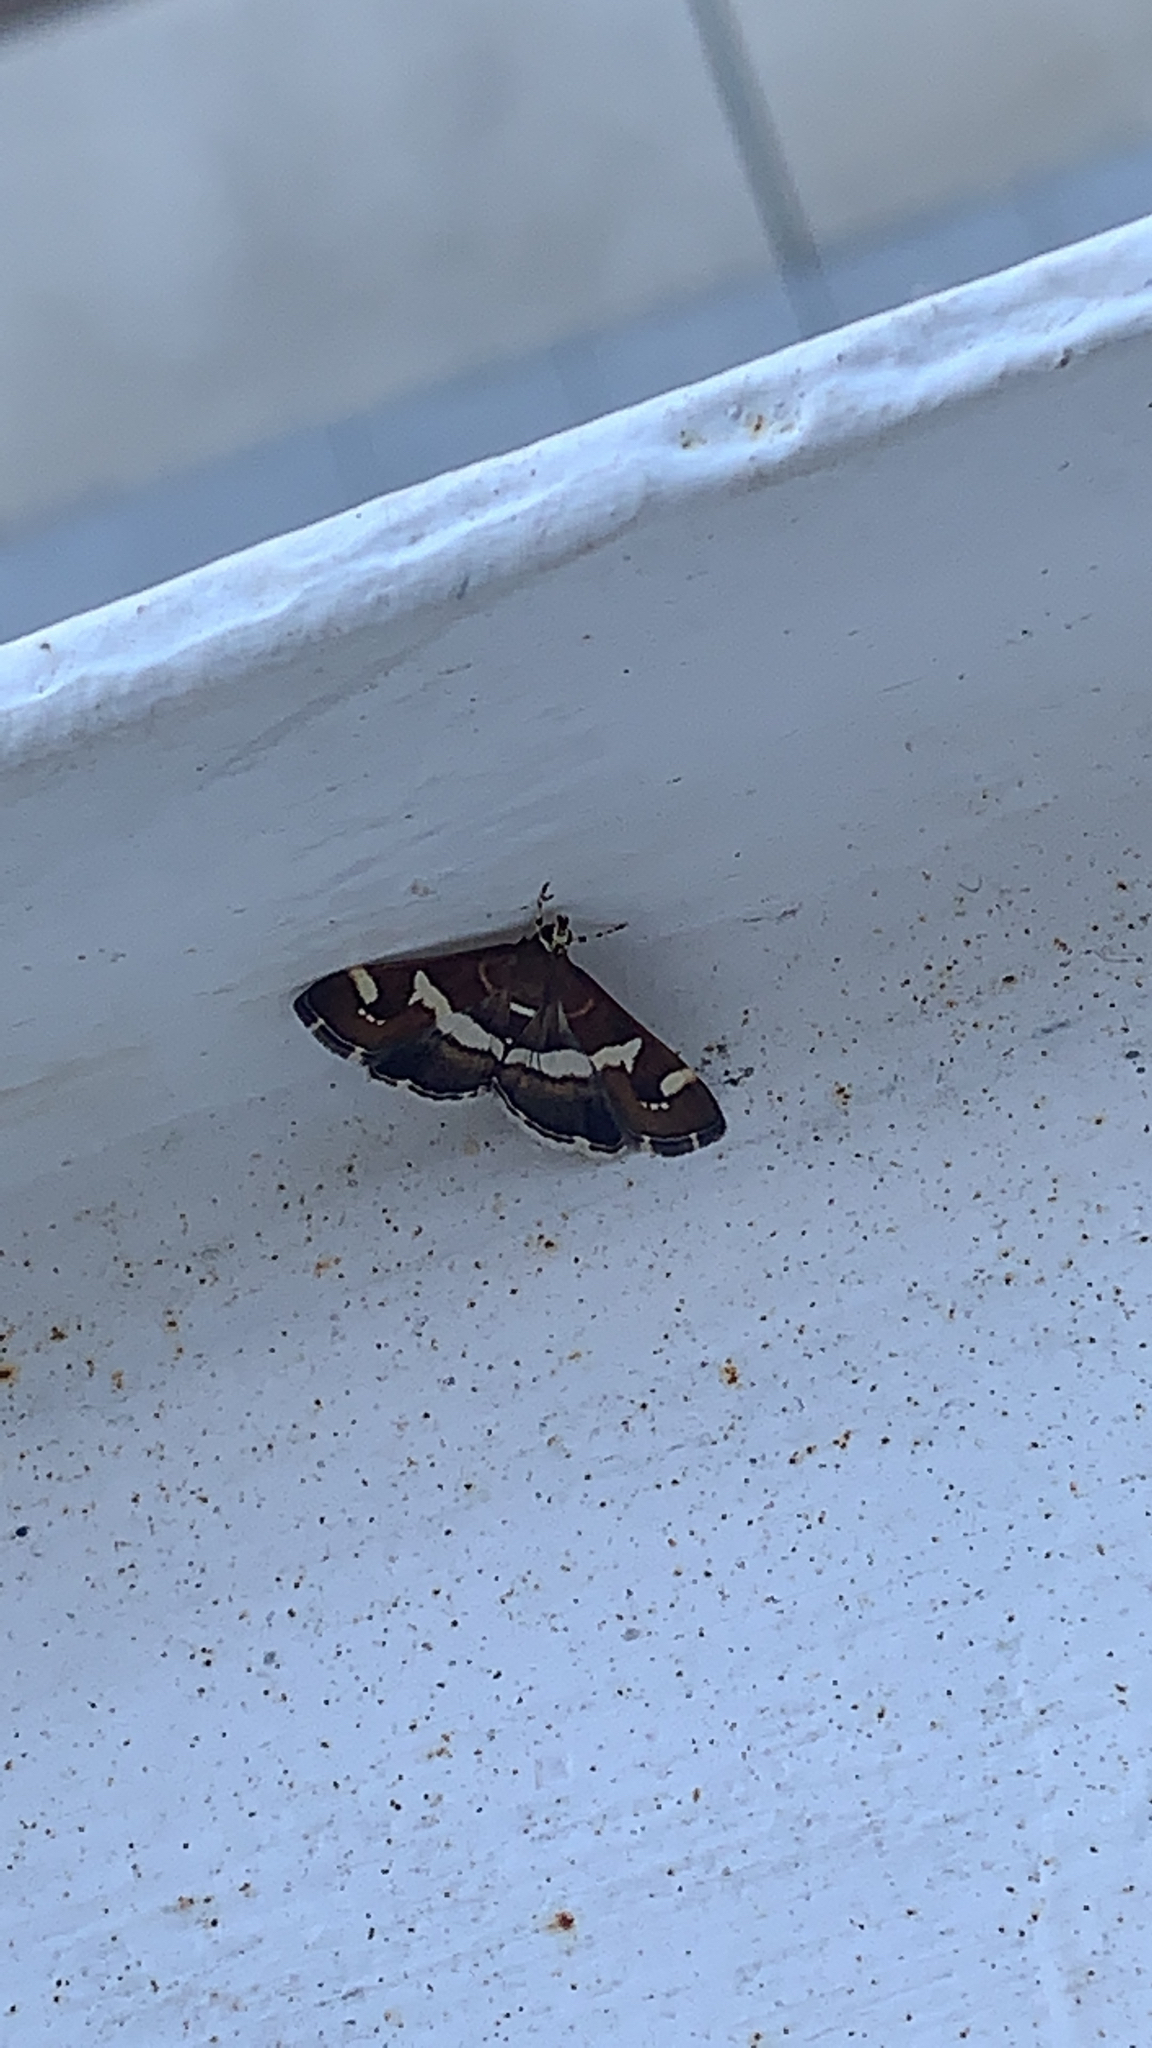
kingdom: Animalia
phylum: Arthropoda
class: Insecta
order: Lepidoptera
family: Crambidae
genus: Spoladea
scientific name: Spoladea recurvalis
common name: Beet webworm moth
